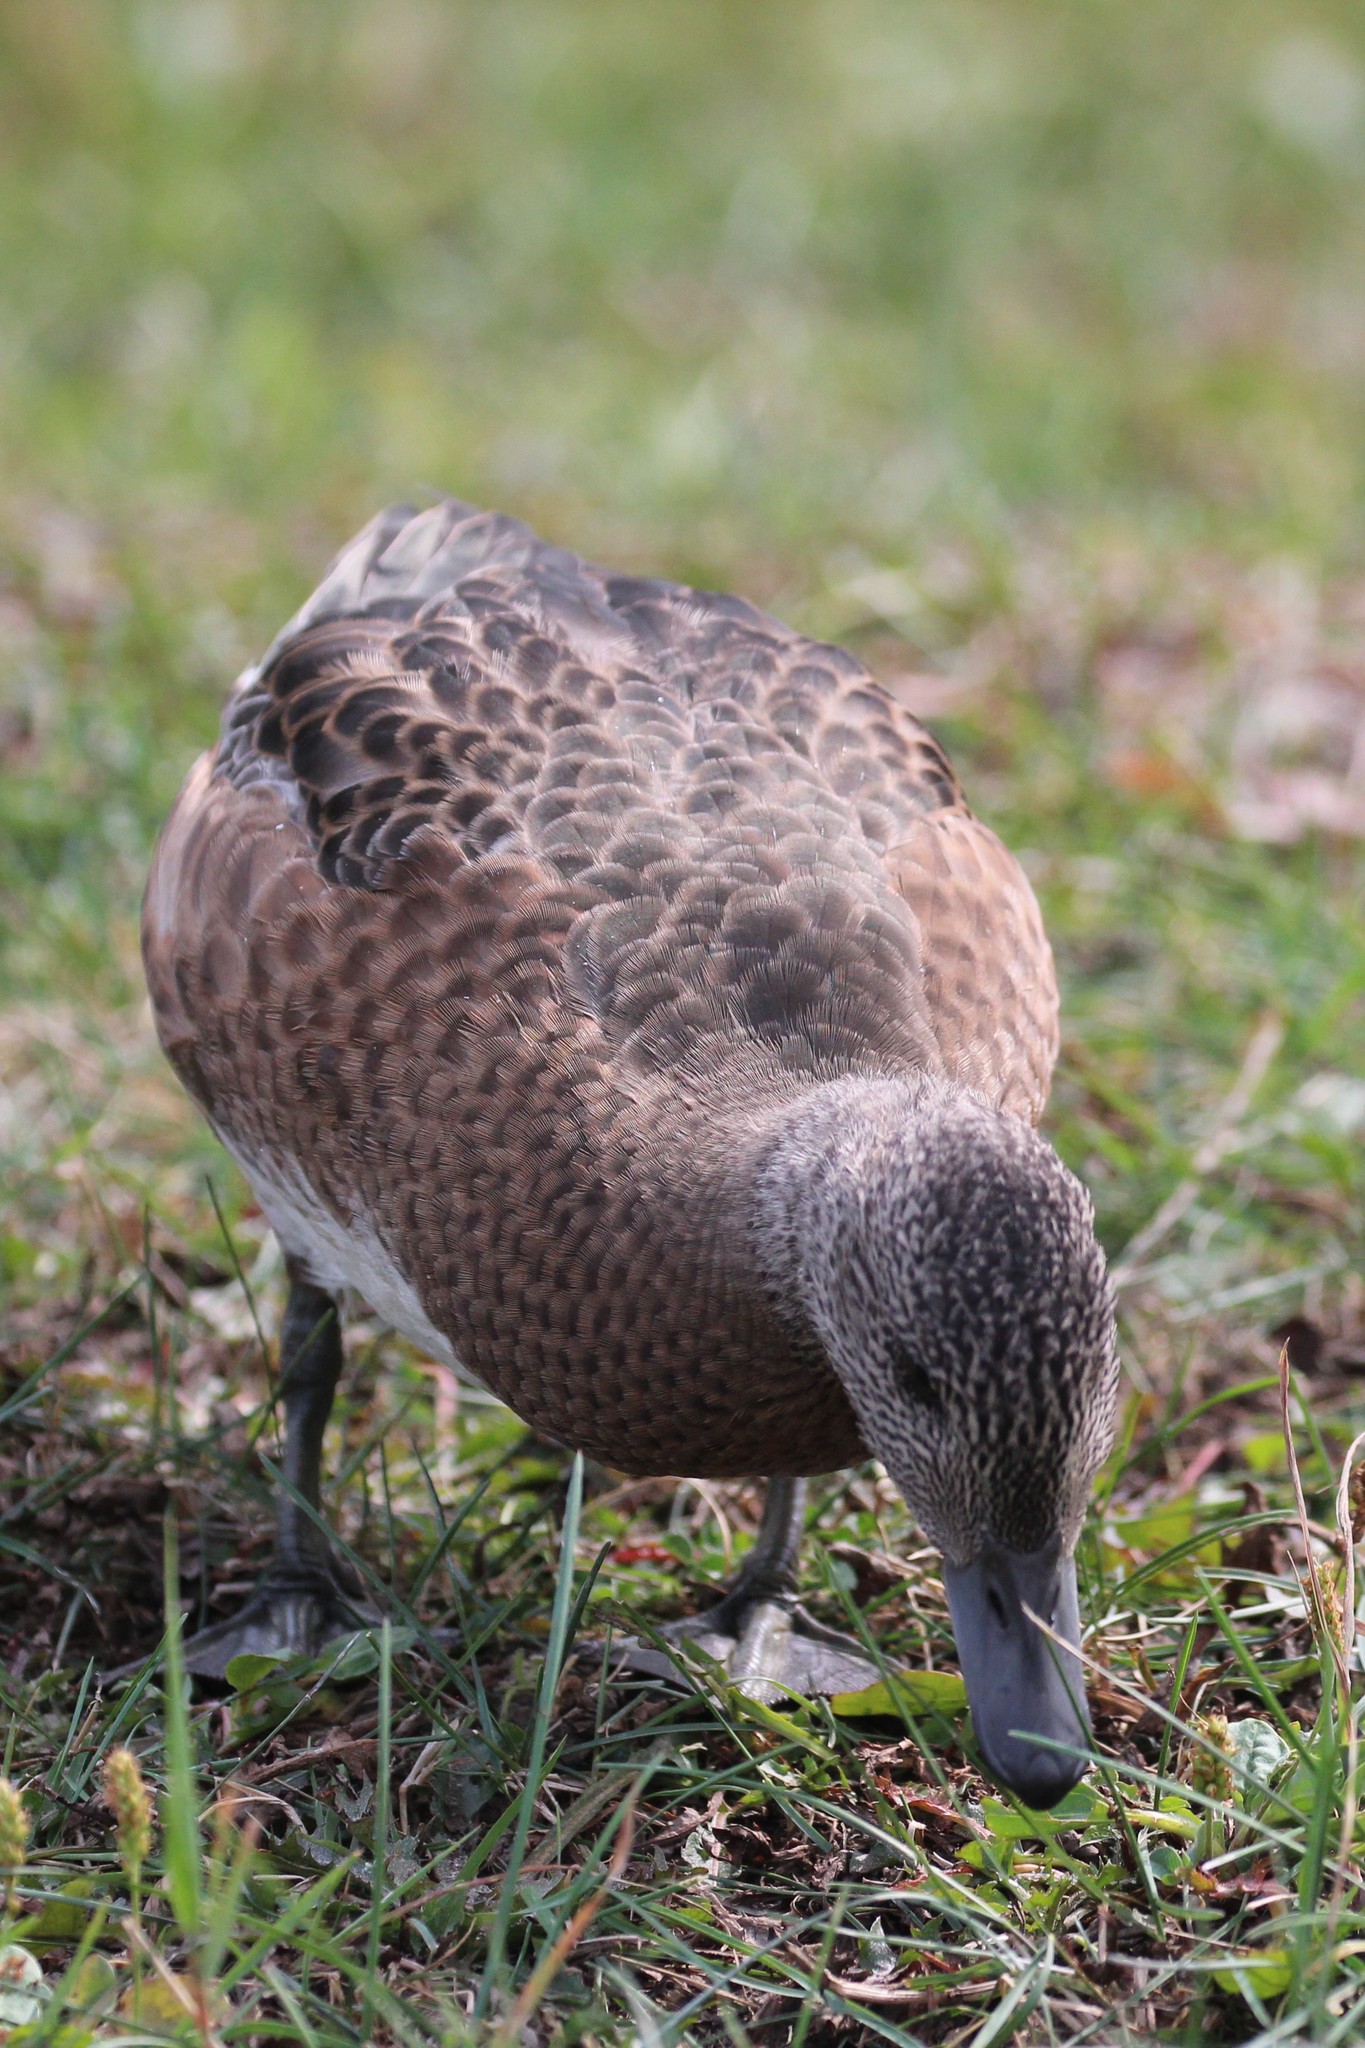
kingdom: Animalia
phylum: Chordata
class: Aves
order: Anseriformes
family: Anatidae
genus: Mareca
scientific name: Mareca americana
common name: American wigeon
